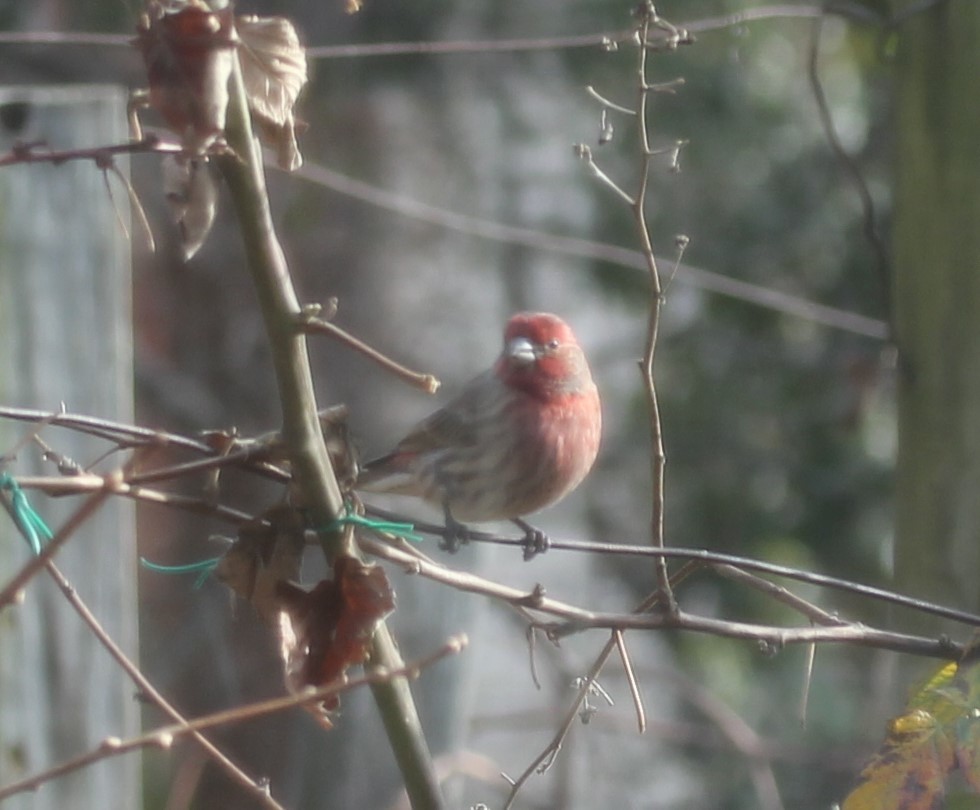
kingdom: Animalia
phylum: Chordata
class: Aves
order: Passeriformes
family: Fringillidae
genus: Haemorhous
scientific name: Haemorhous mexicanus
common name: House finch
